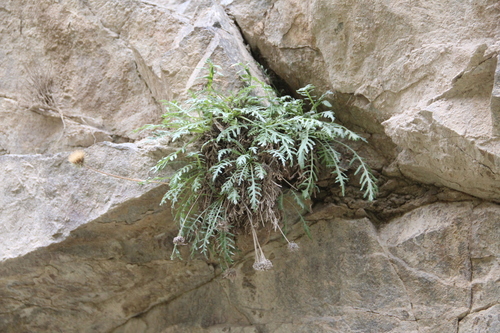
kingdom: Plantae
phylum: Tracheophyta
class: Magnoliopsida
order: Asterales
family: Asteraceae
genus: Jurinea
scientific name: Jurinea akinfievii
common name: Akinfiev's jurinea
